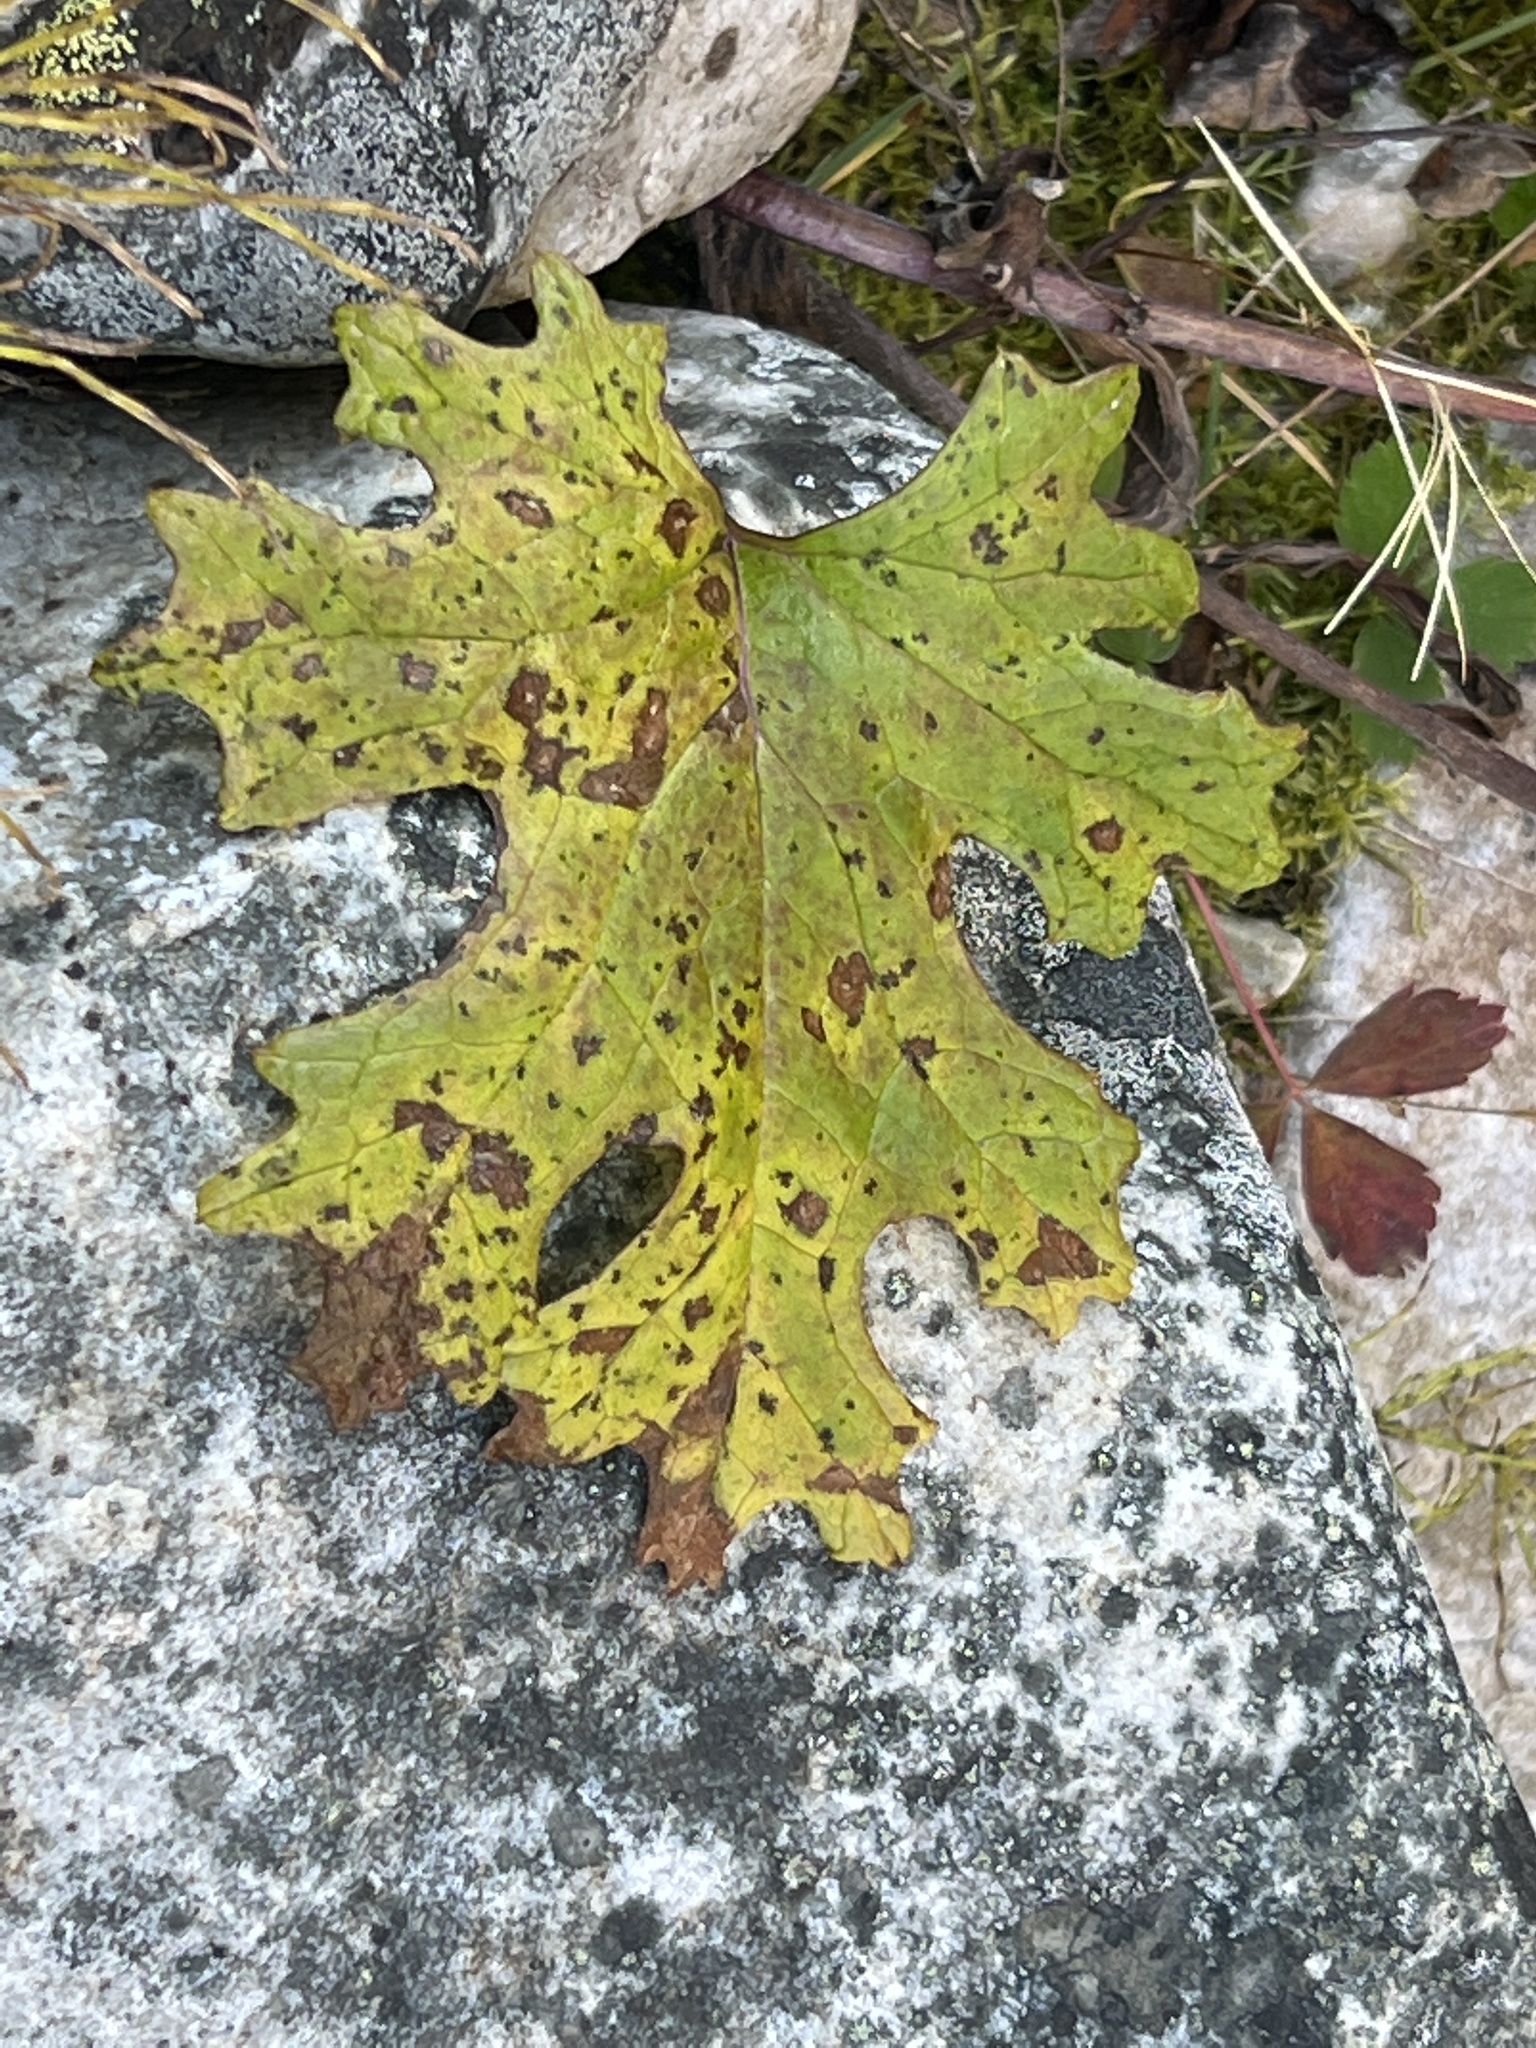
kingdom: Plantae
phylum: Tracheophyta
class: Magnoliopsida
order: Asterales
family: Asteraceae
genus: Petasites
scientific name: Petasites frigidus
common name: Arctic butterbur
